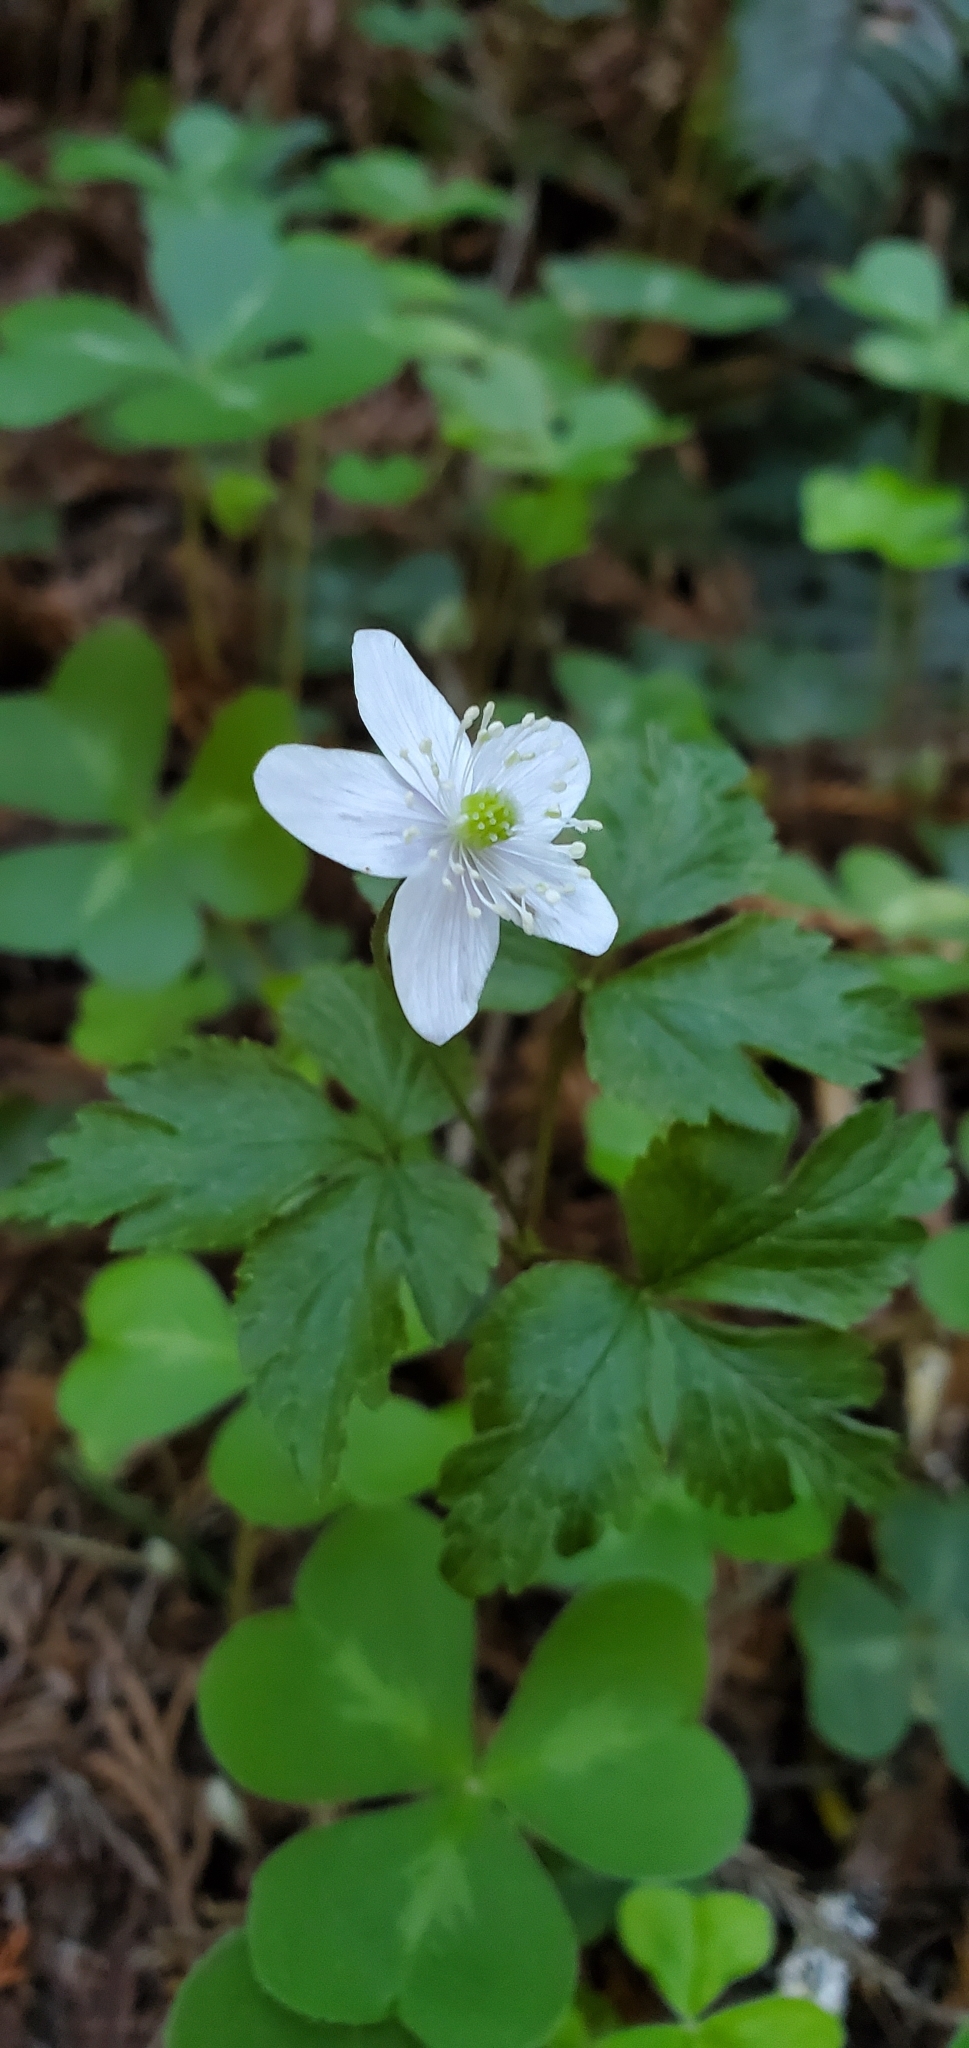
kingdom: Plantae
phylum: Tracheophyta
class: Magnoliopsida
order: Ranunculales
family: Ranunculaceae
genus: Anemone
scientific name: Anemone
